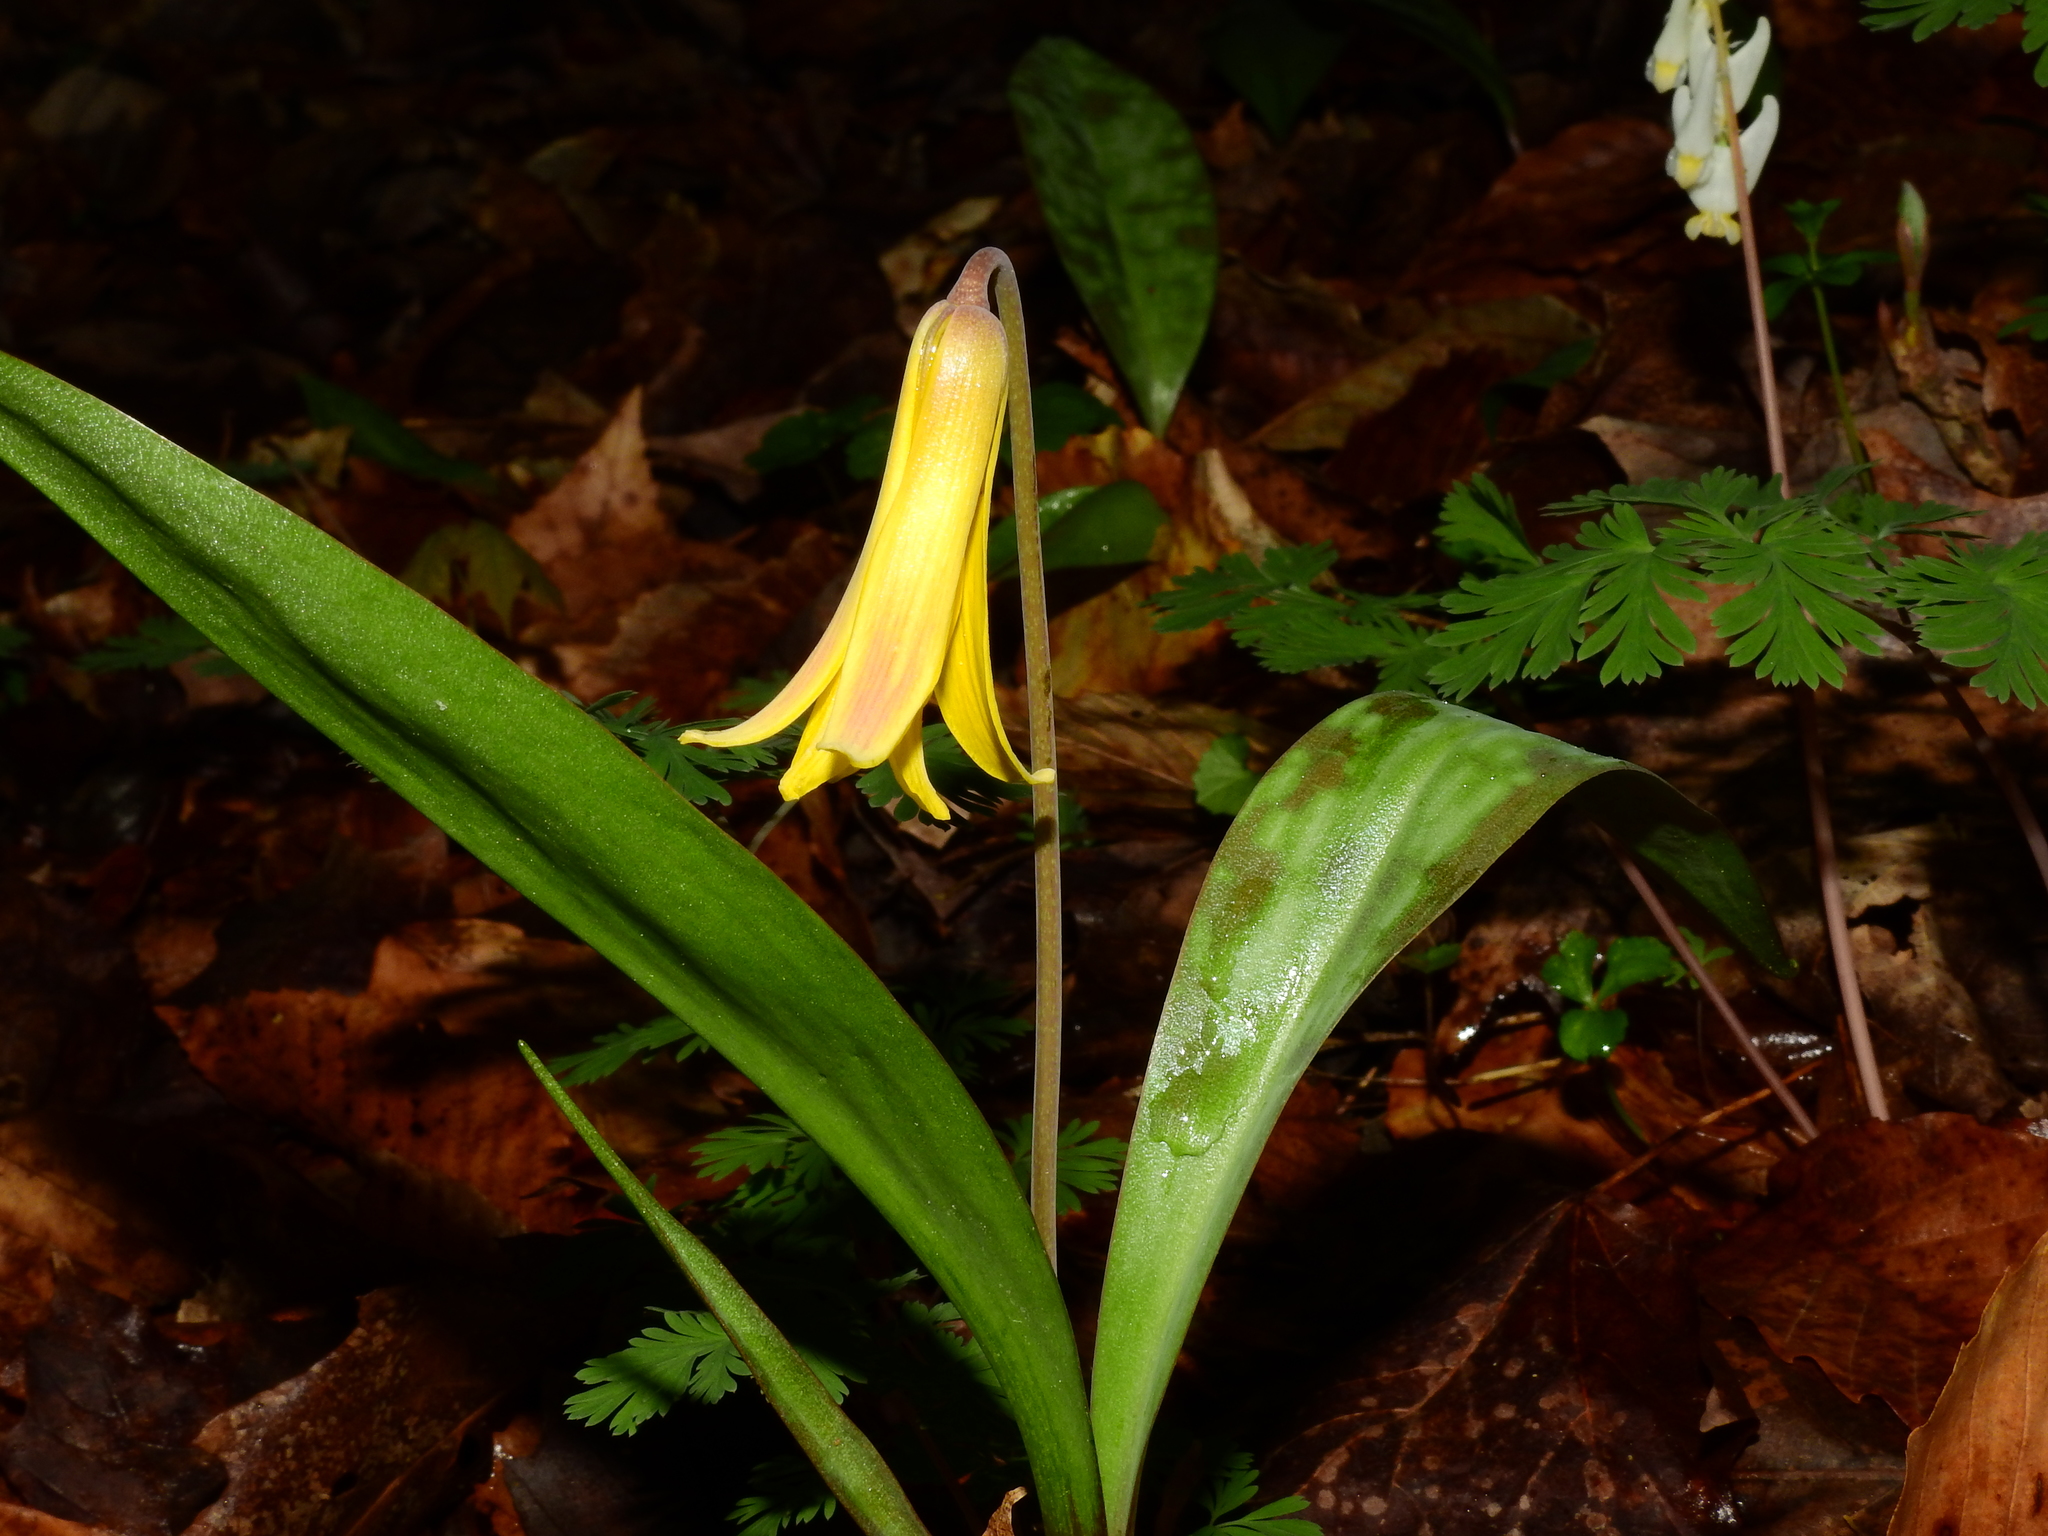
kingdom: Plantae
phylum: Tracheophyta
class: Liliopsida
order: Liliales
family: Liliaceae
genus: Erythronium
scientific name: Erythronium americanum
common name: Yellow adder's-tongue
